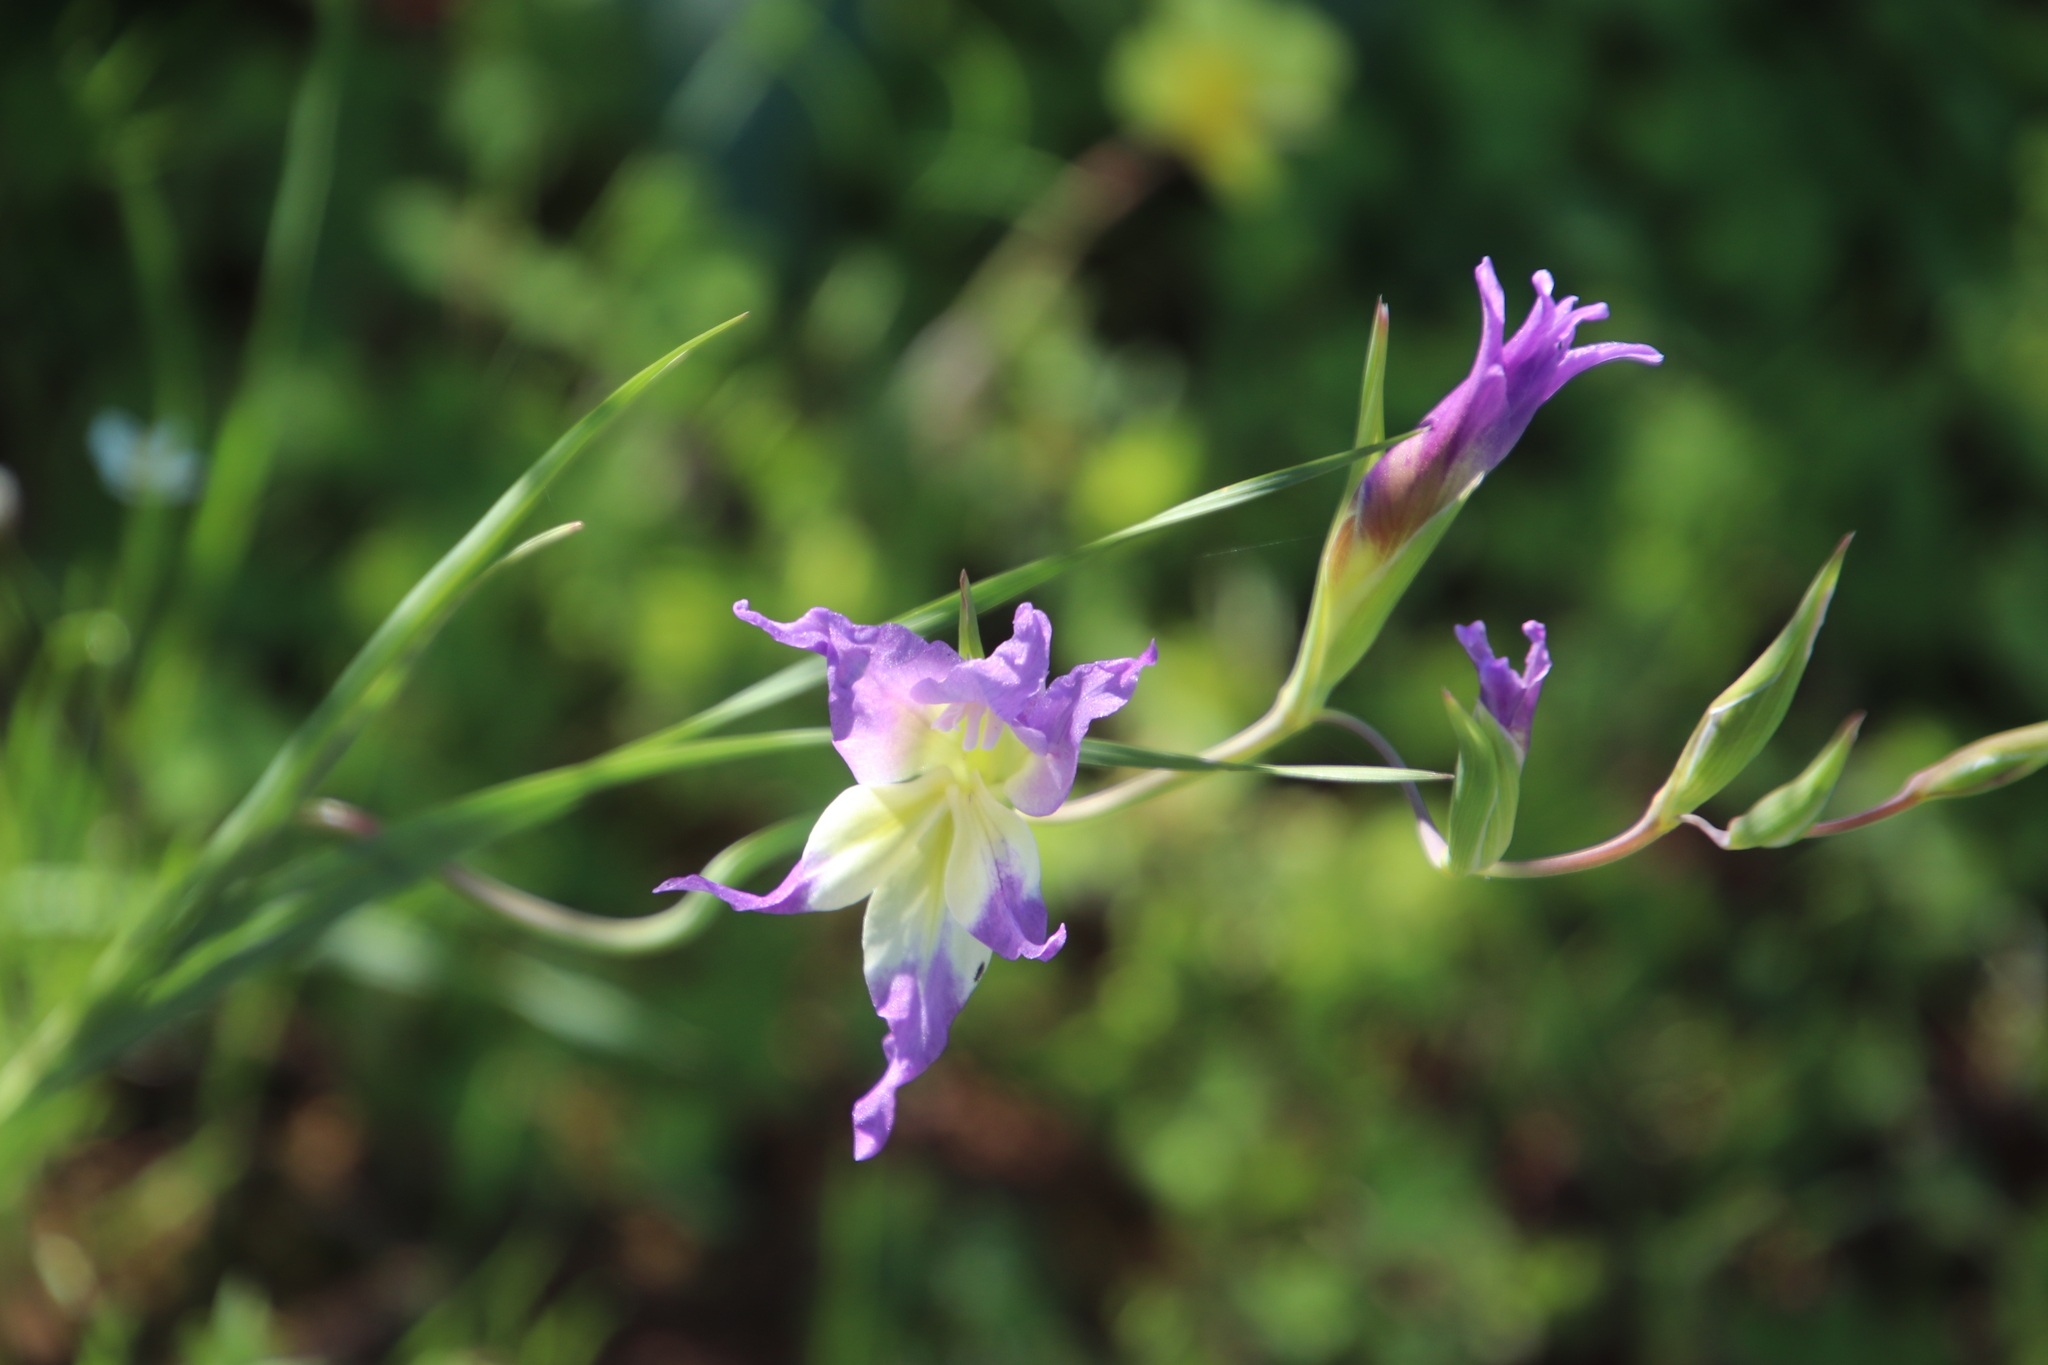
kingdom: Plantae
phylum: Tracheophyta
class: Liliopsida
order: Asparagales
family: Iridaceae
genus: Gladiolus
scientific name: Gladiolus venustus
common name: Purple kalkoentjie
